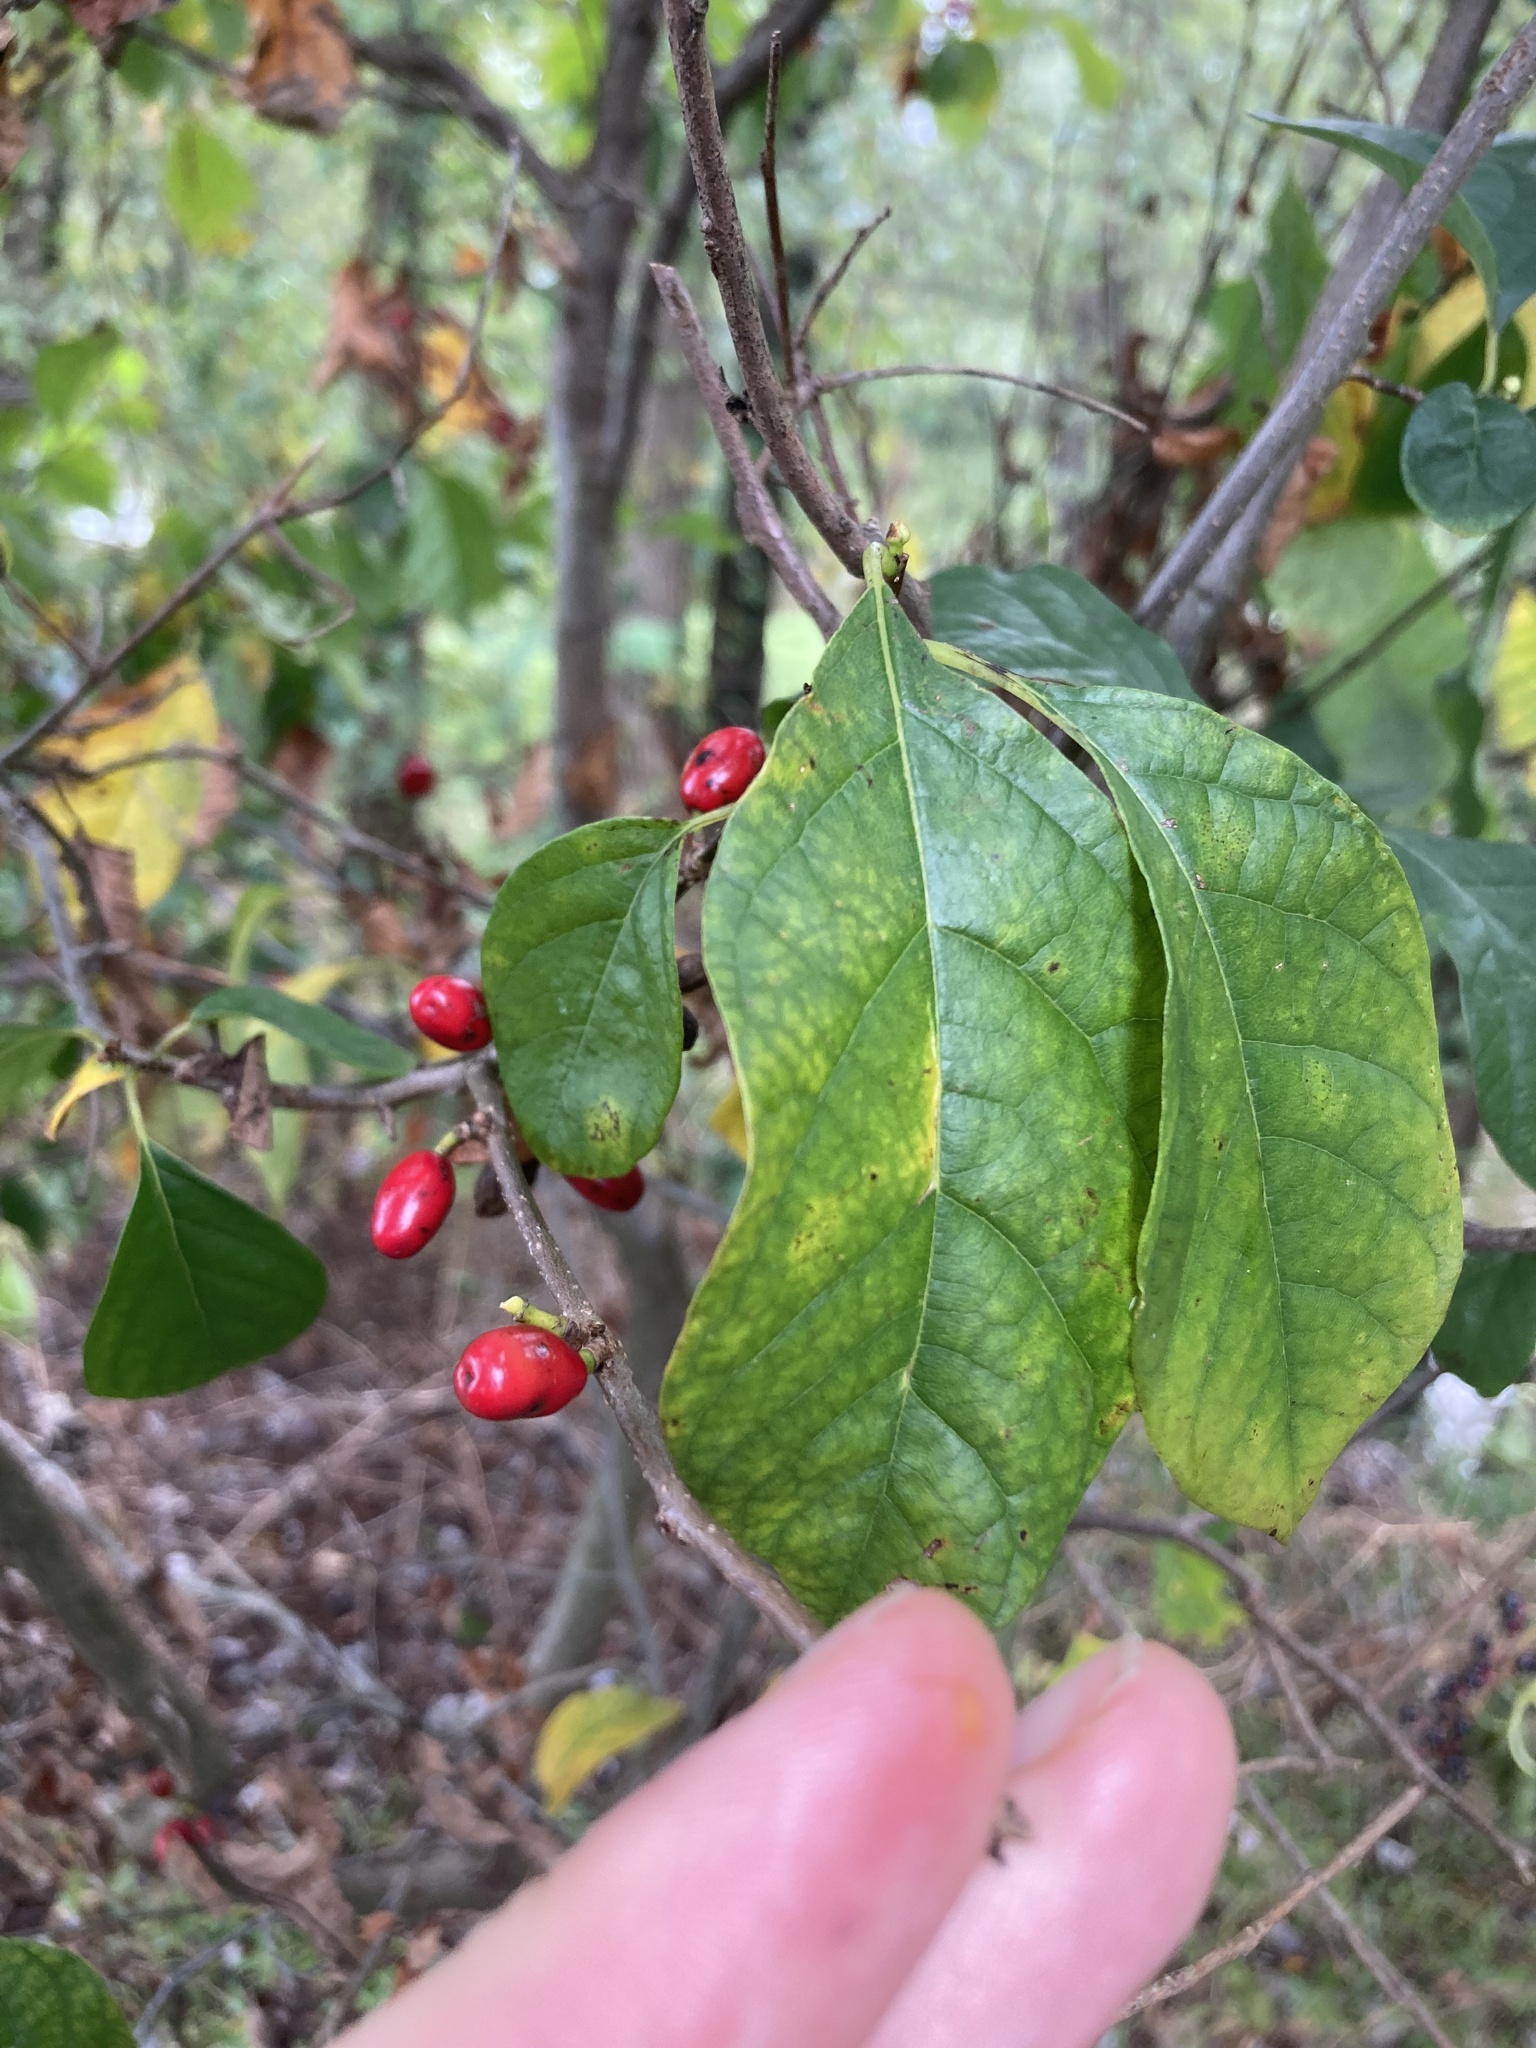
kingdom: Plantae
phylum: Tracheophyta
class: Magnoliopsida
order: Laurales
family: Lauraceae
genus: Lindera
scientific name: Lindera benzoin
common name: Spicebush
